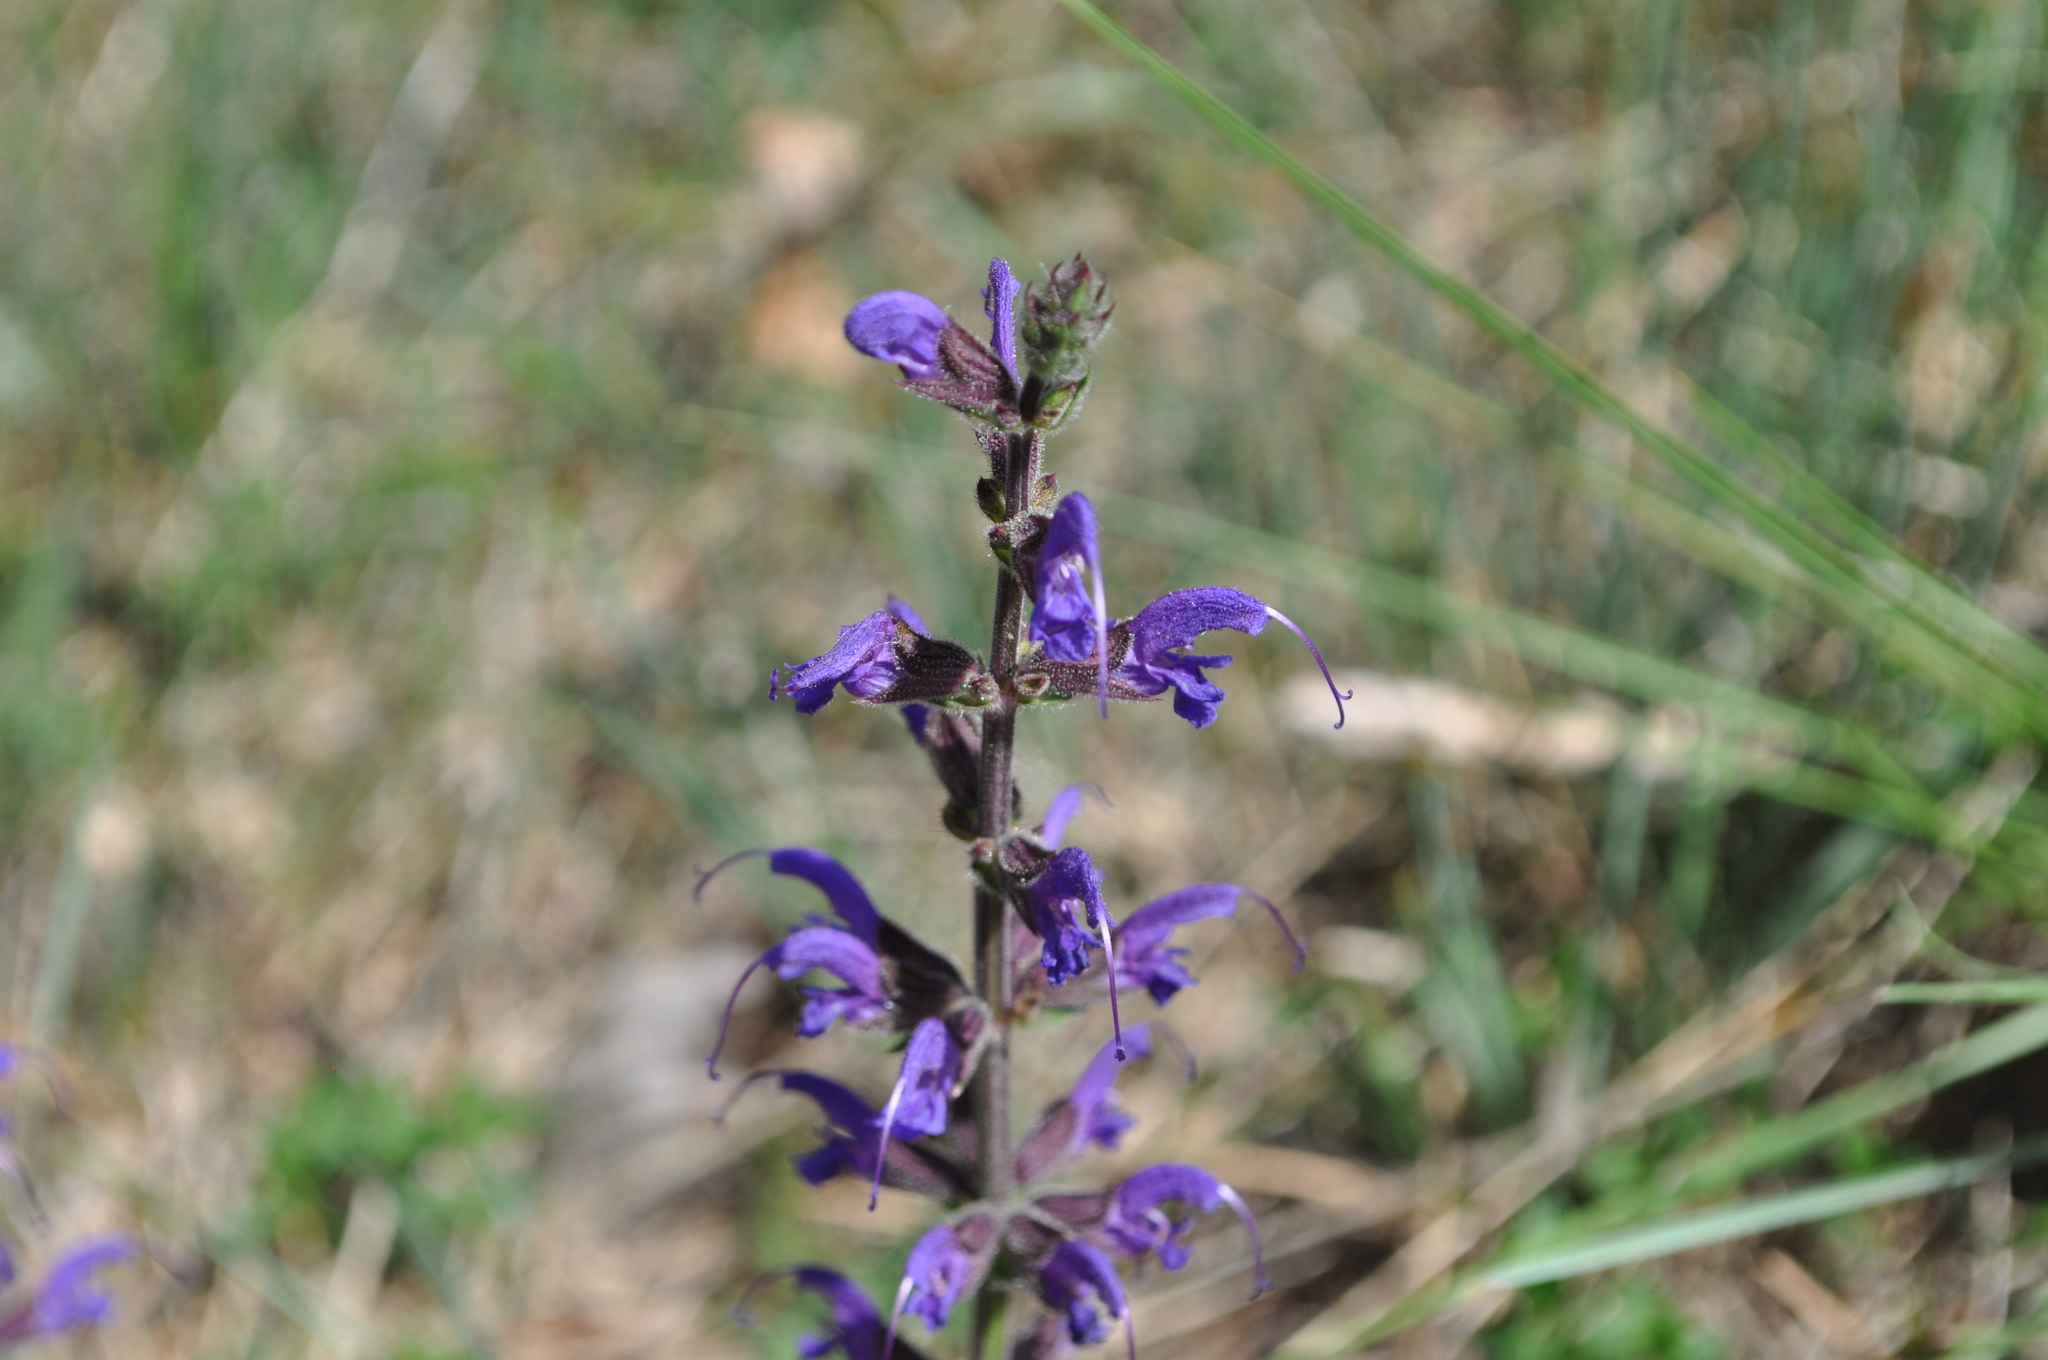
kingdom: Plantae
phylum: Tracheophyta
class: Magnoliopsida
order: Lamiales
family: Lamiaceae
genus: Salvia
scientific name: Salvia pratensis
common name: Meadow sage
